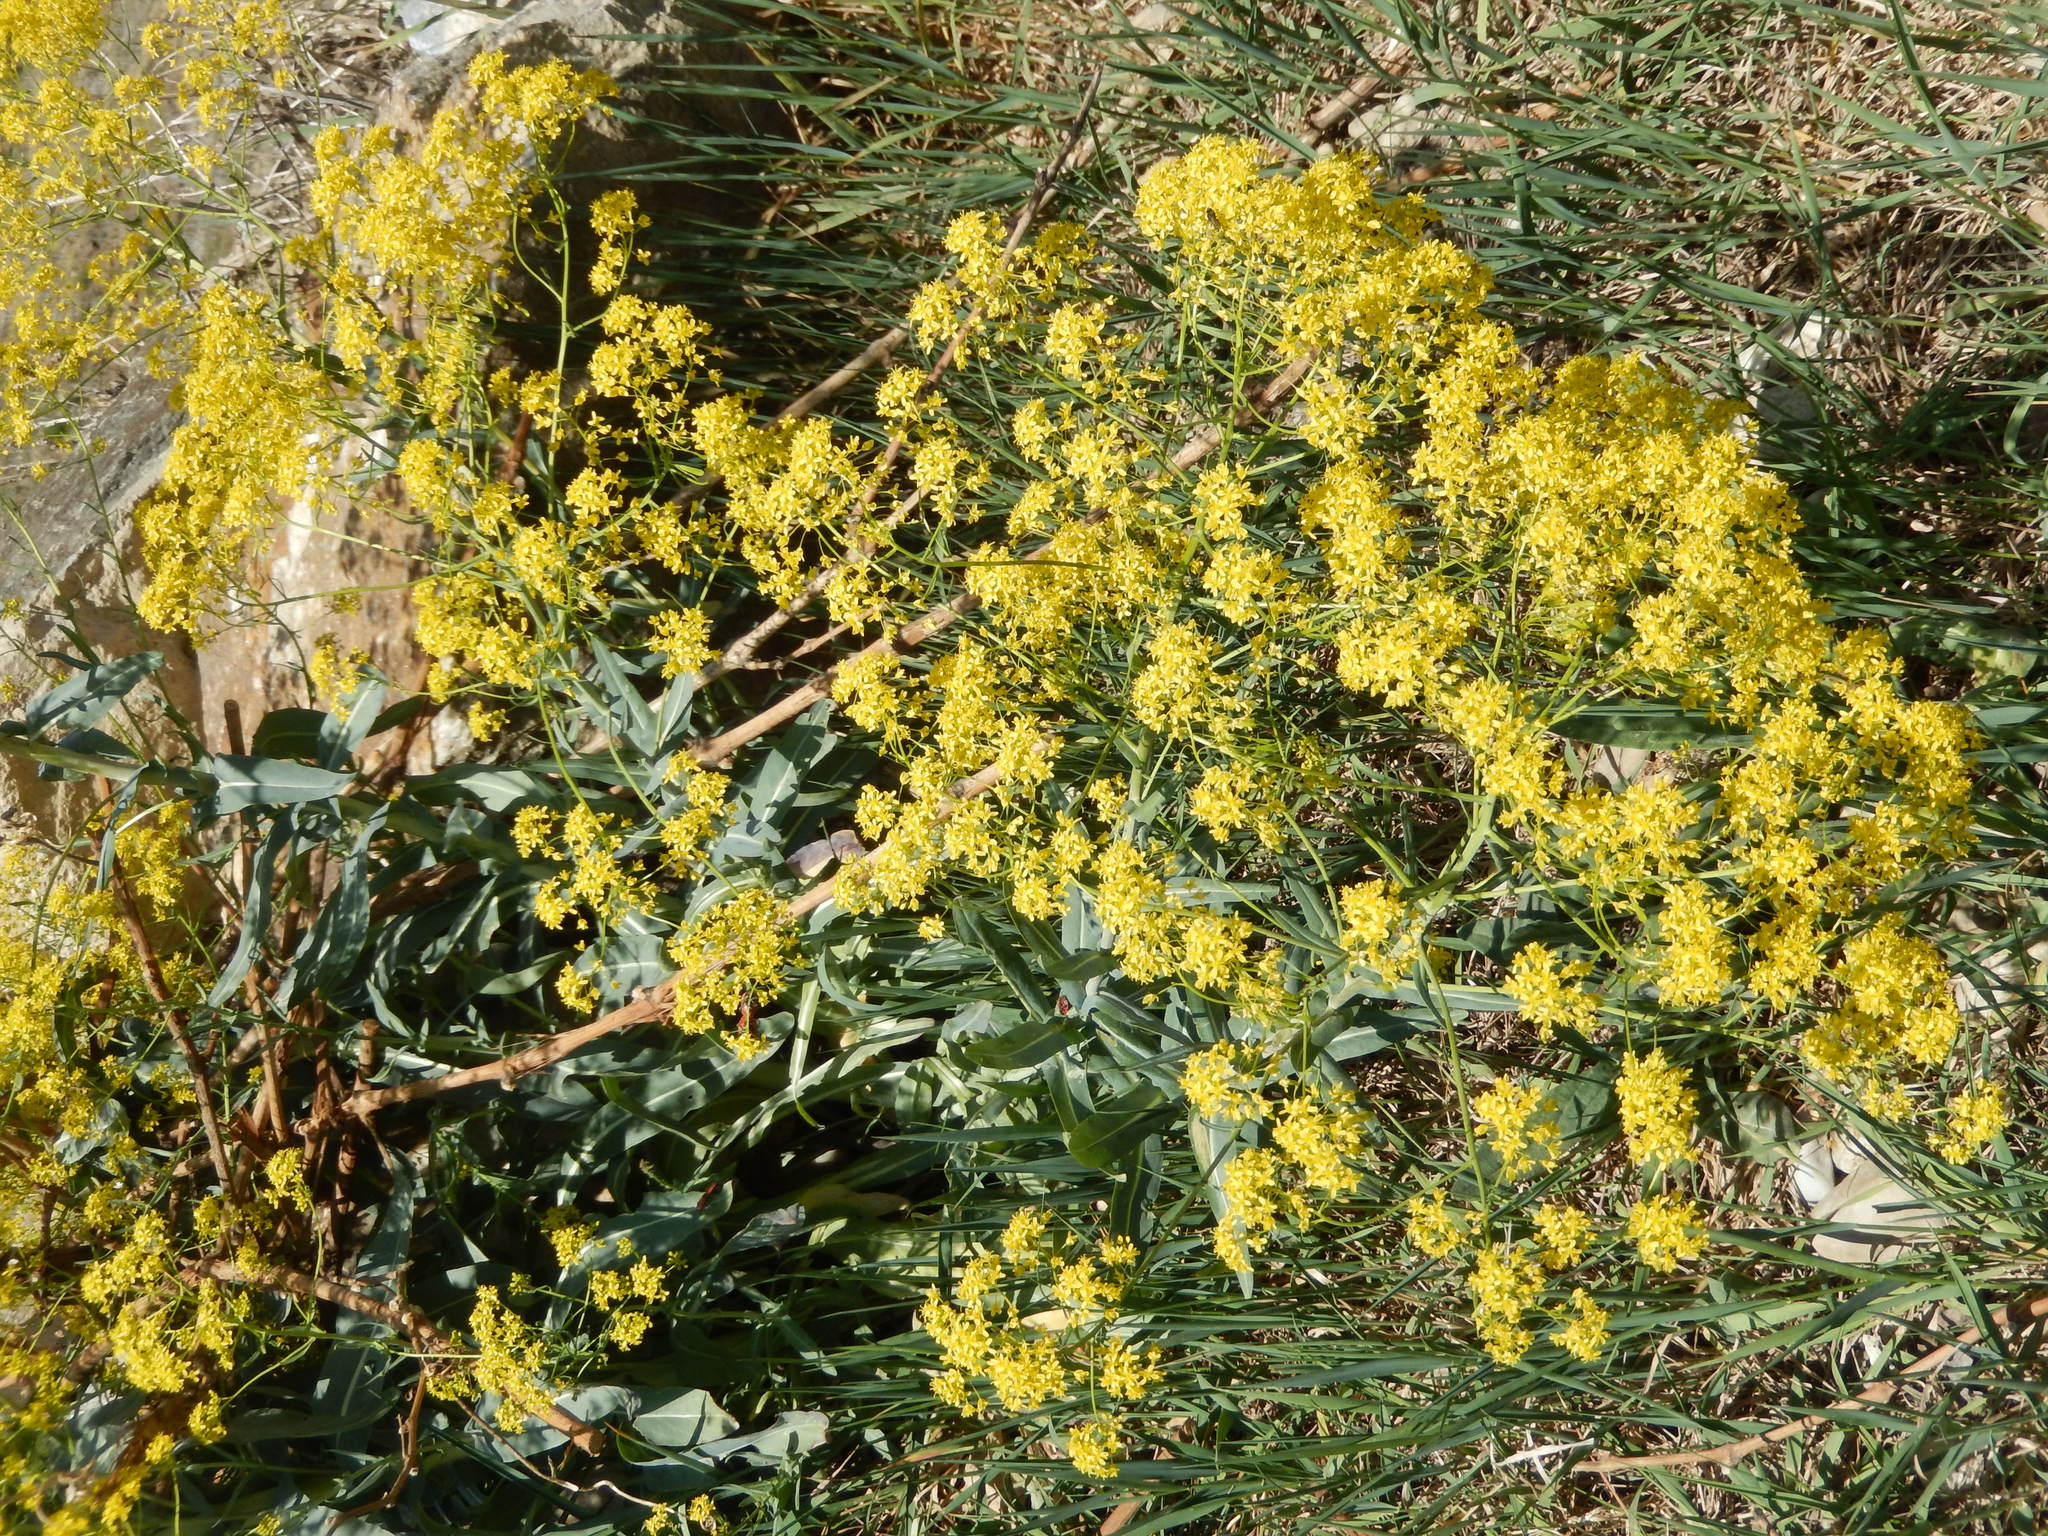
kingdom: Plantae
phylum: Tracheophyta
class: Magnoliopsida
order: Brassicales
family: Brassicaceae
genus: Isatis
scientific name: Isatis tinctoria
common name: Woad
